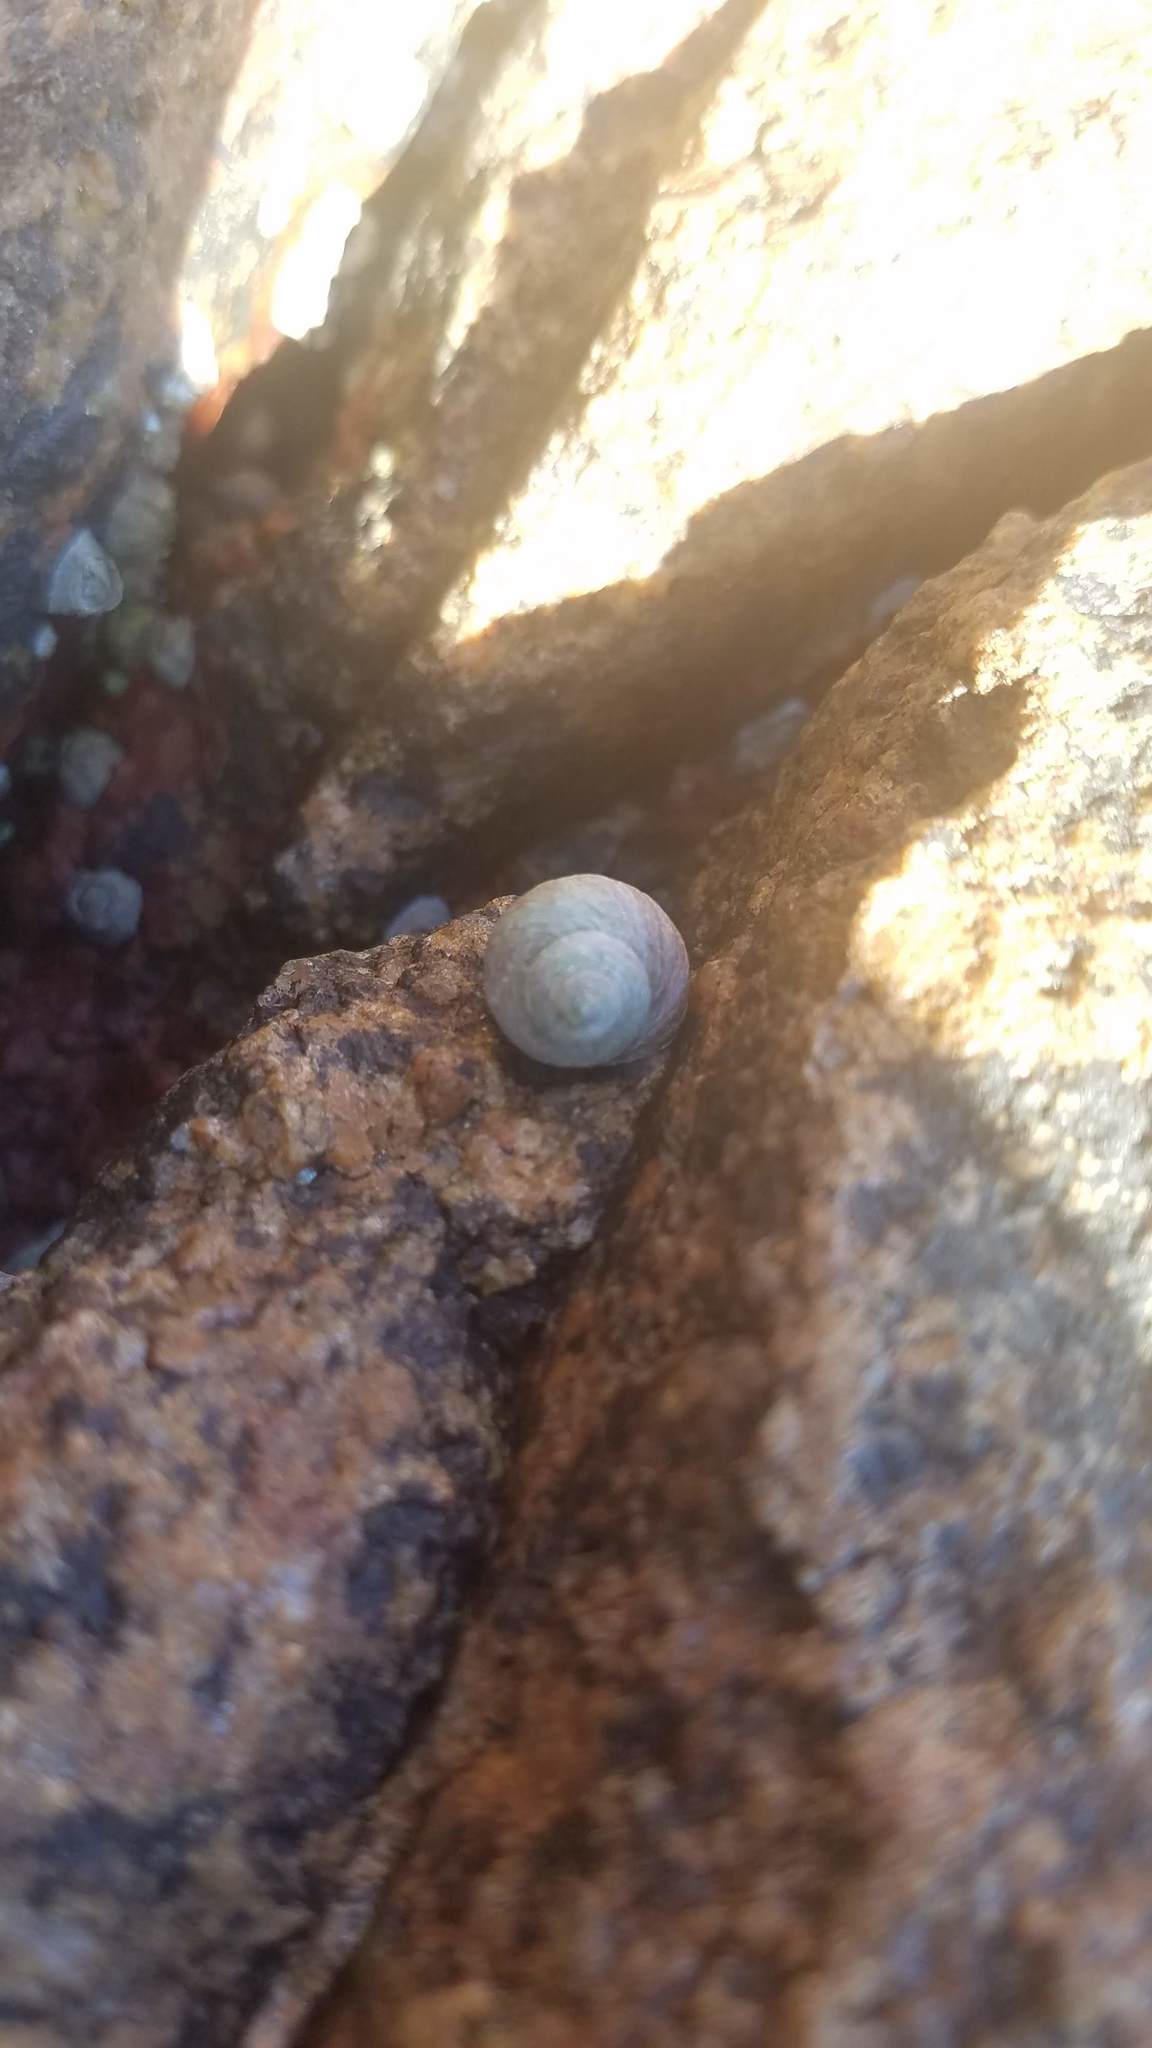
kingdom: Animalia
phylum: Mollusca
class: Gastropoda
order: Littorinimorpha
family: Littorinidae
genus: Littorina
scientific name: Littorina littorea
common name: Common periwinkle
